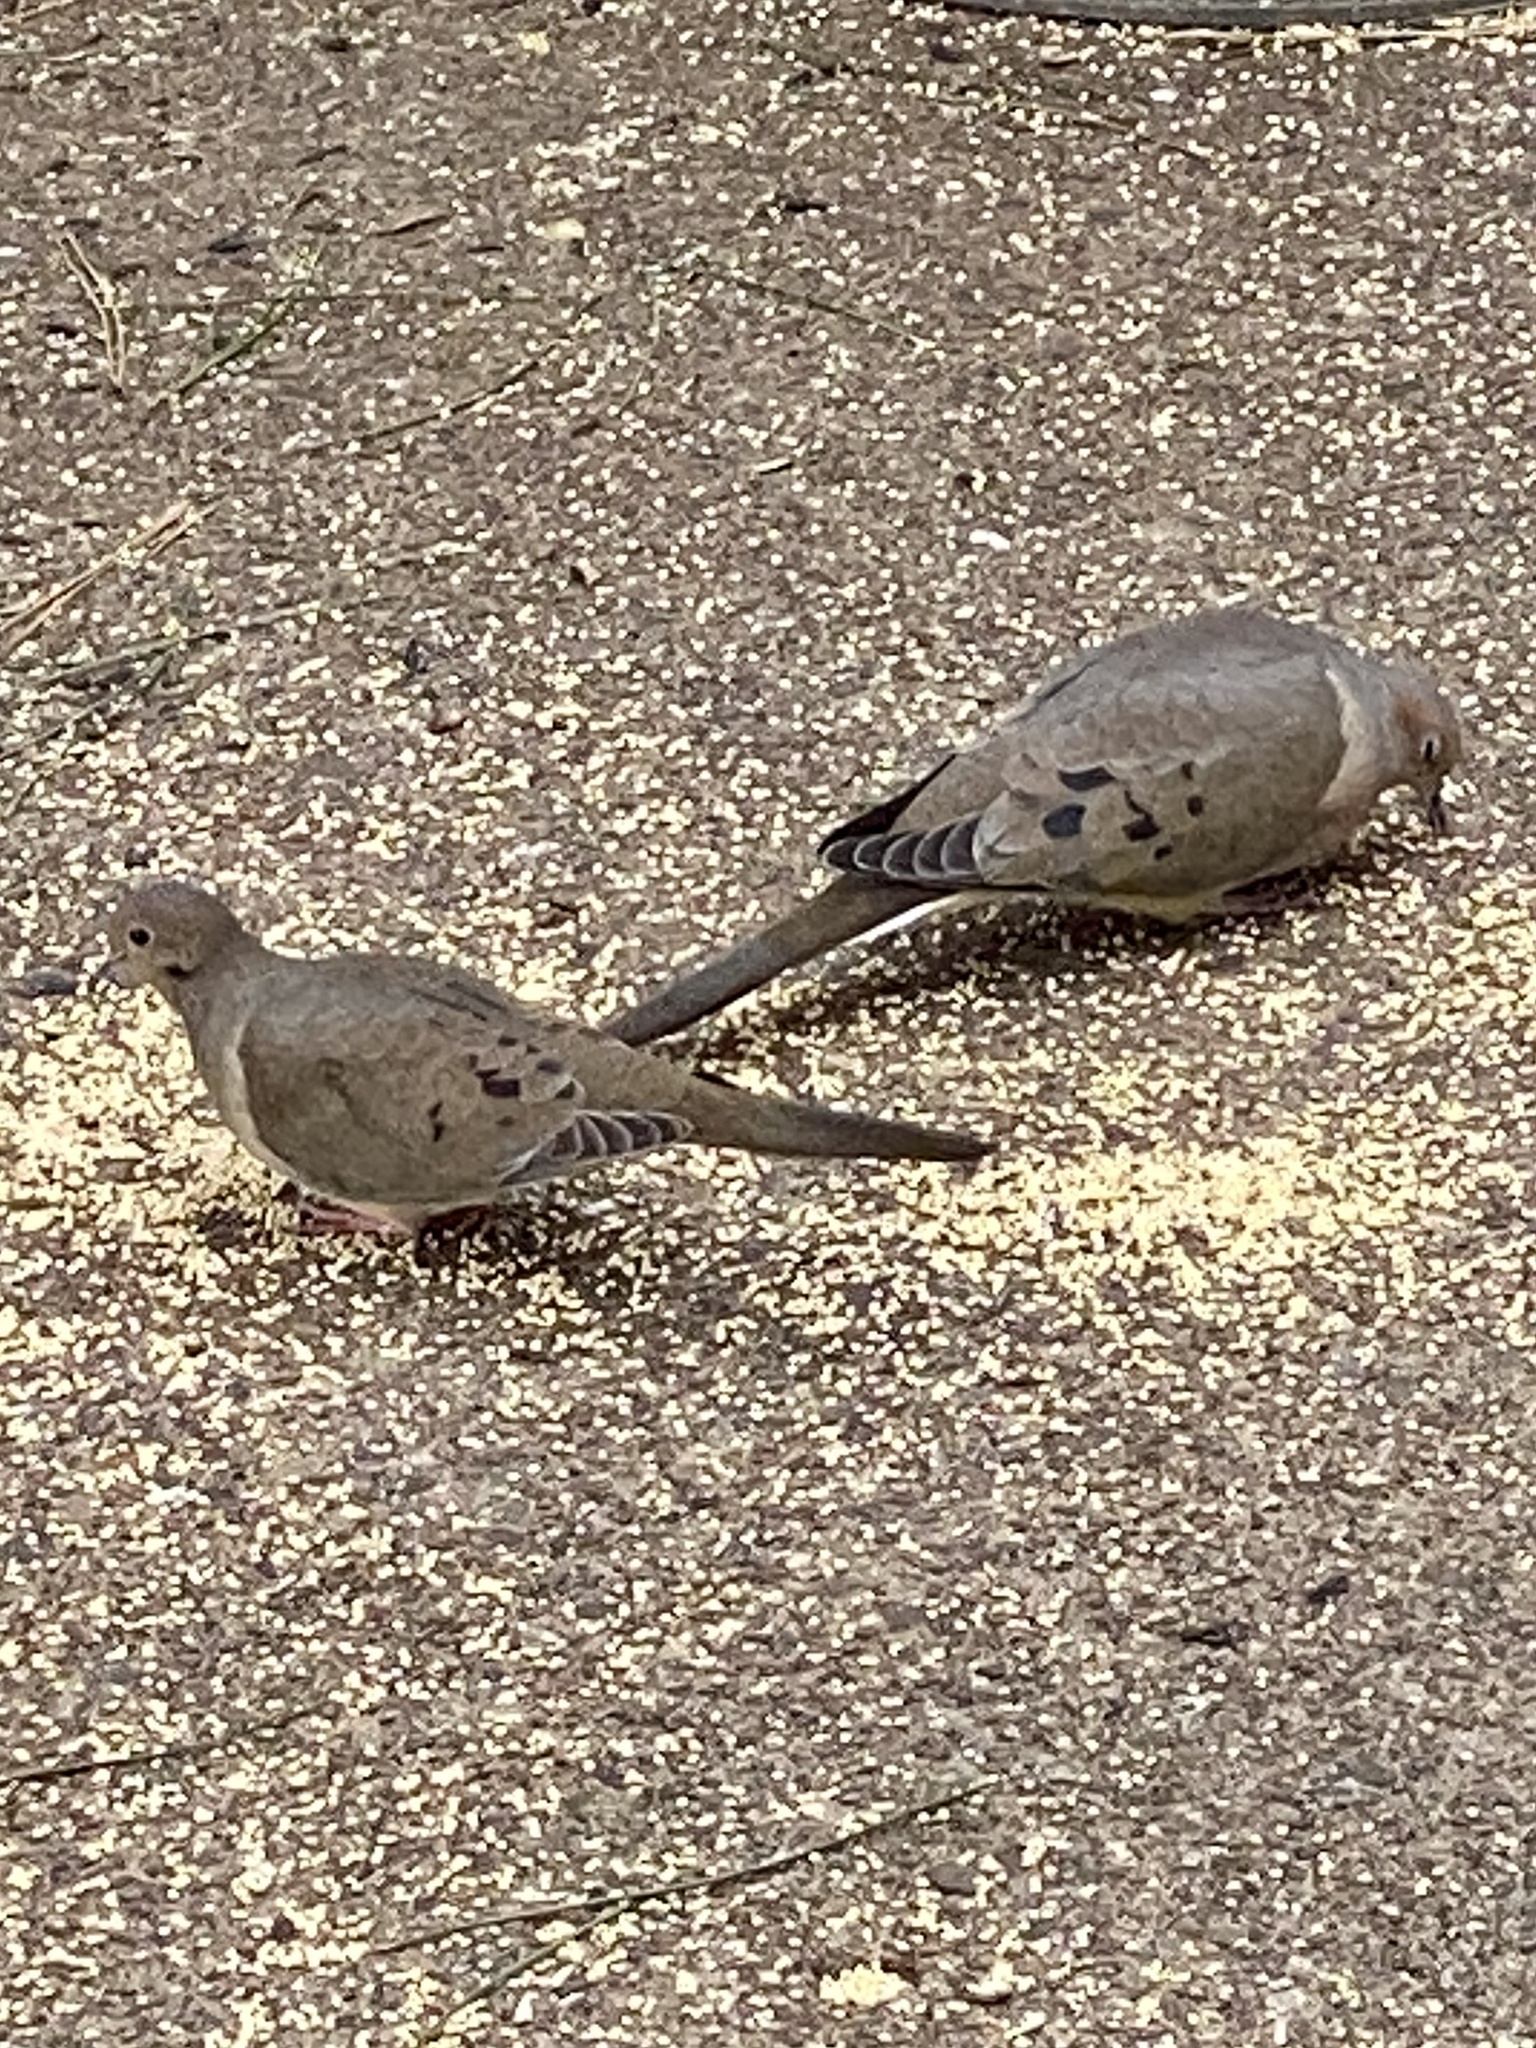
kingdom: Animalia
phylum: Chordata
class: Aves
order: Columbiformes
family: Columbidae
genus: Zenaida
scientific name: Zenaida macroura
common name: Mourning dove
